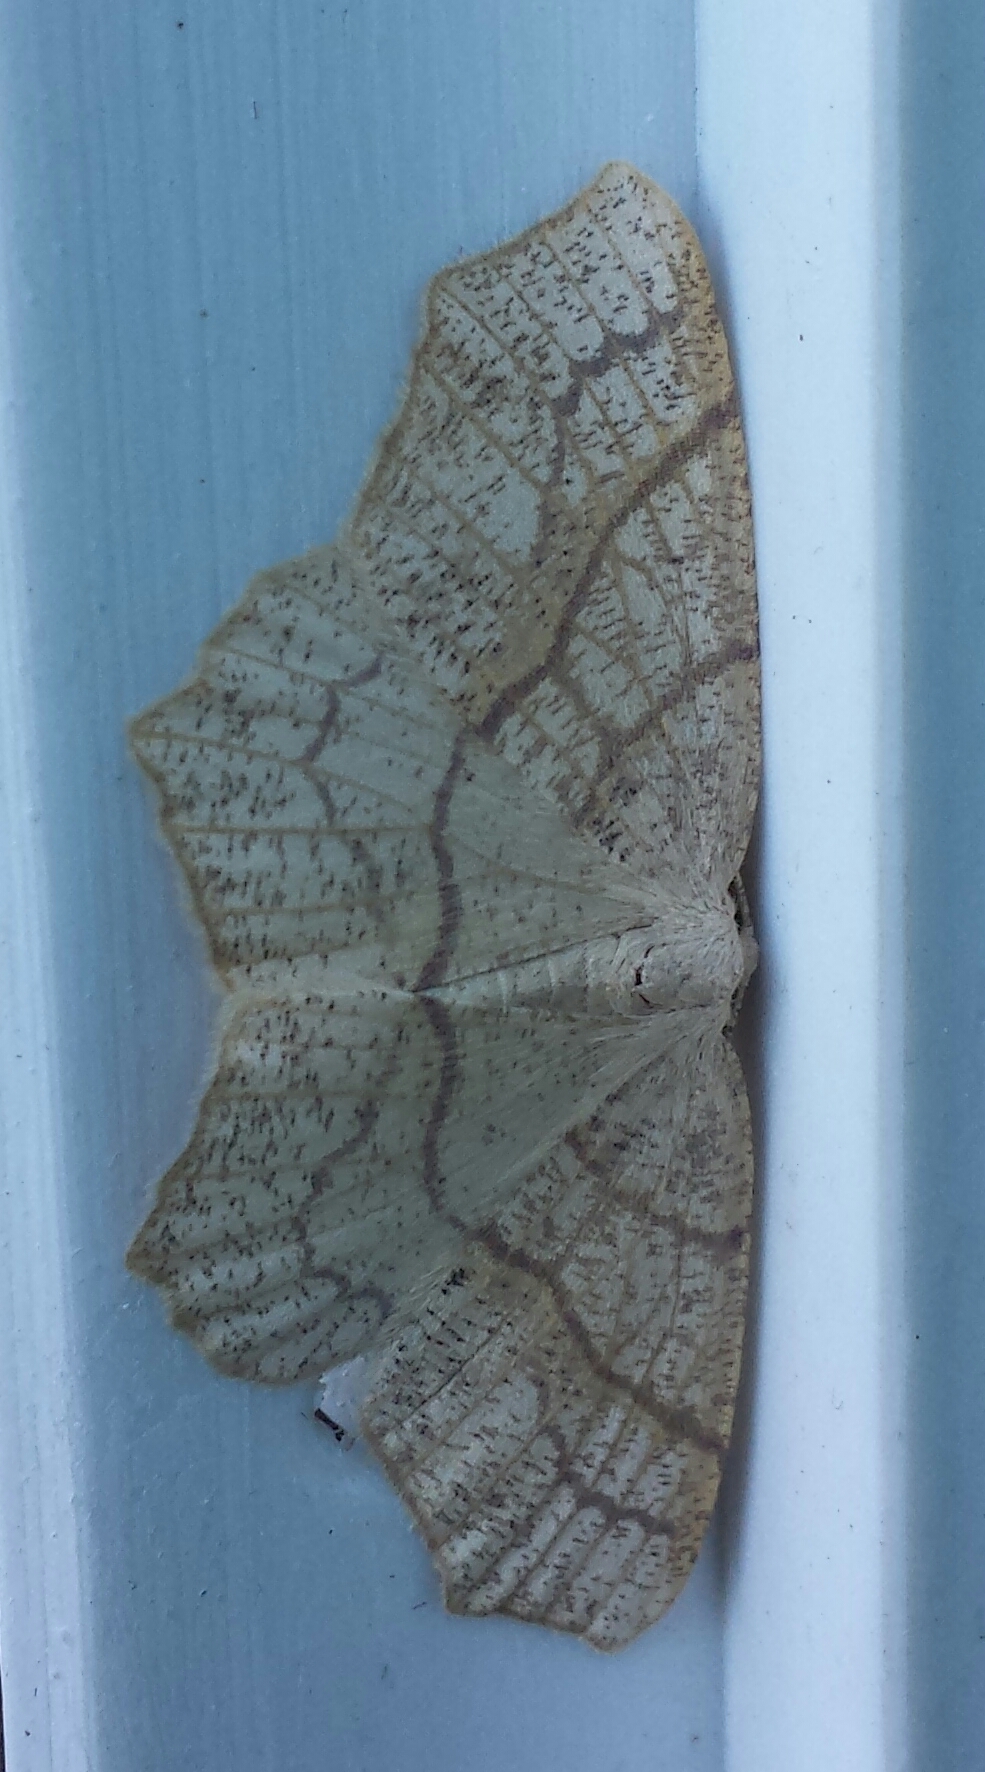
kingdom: Animalia
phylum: Arthropoda
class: Insecta
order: Lepidoptera
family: Geometridae
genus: Besma
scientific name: Besma quercivoraria
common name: Oak besma
